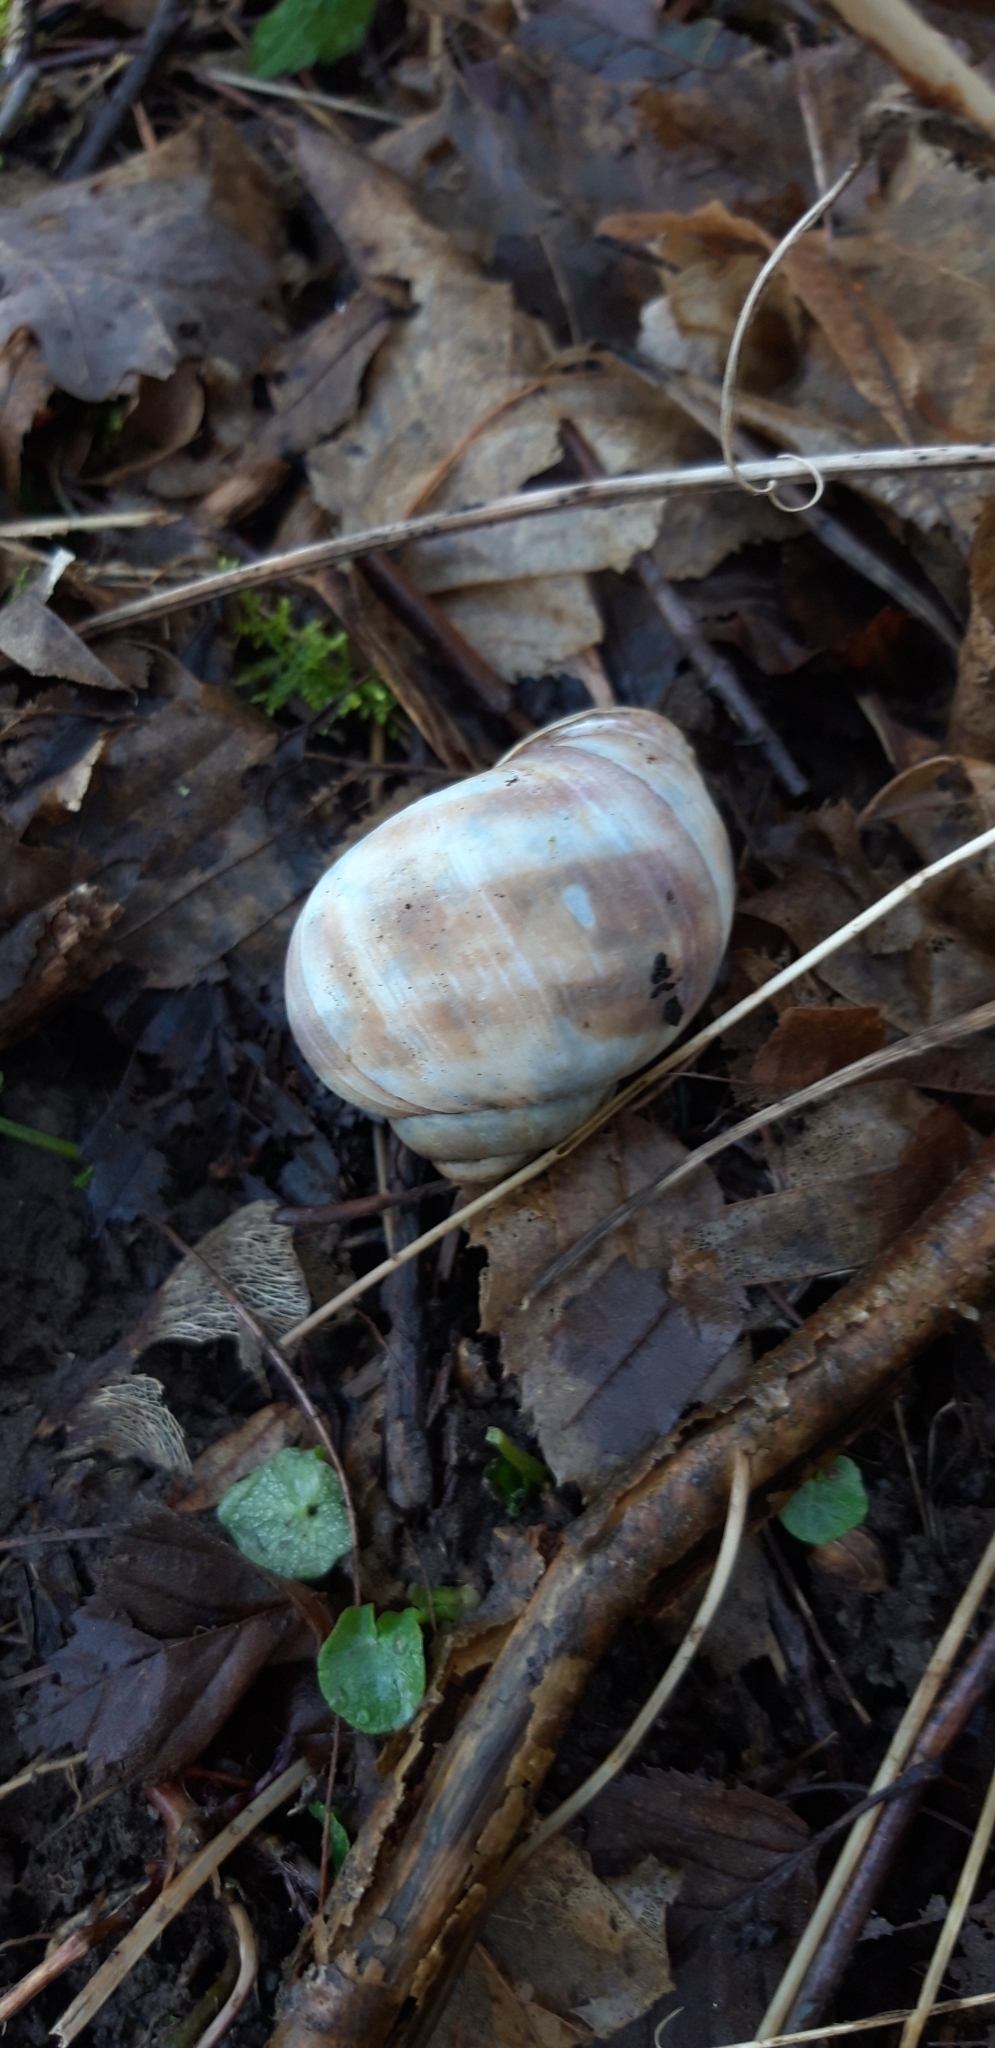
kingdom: Animalia
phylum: Mollusca
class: Gastropoda
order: Stylommatophora
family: Helicidae
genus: Helix
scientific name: Helix pomatia
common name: Roman snail
